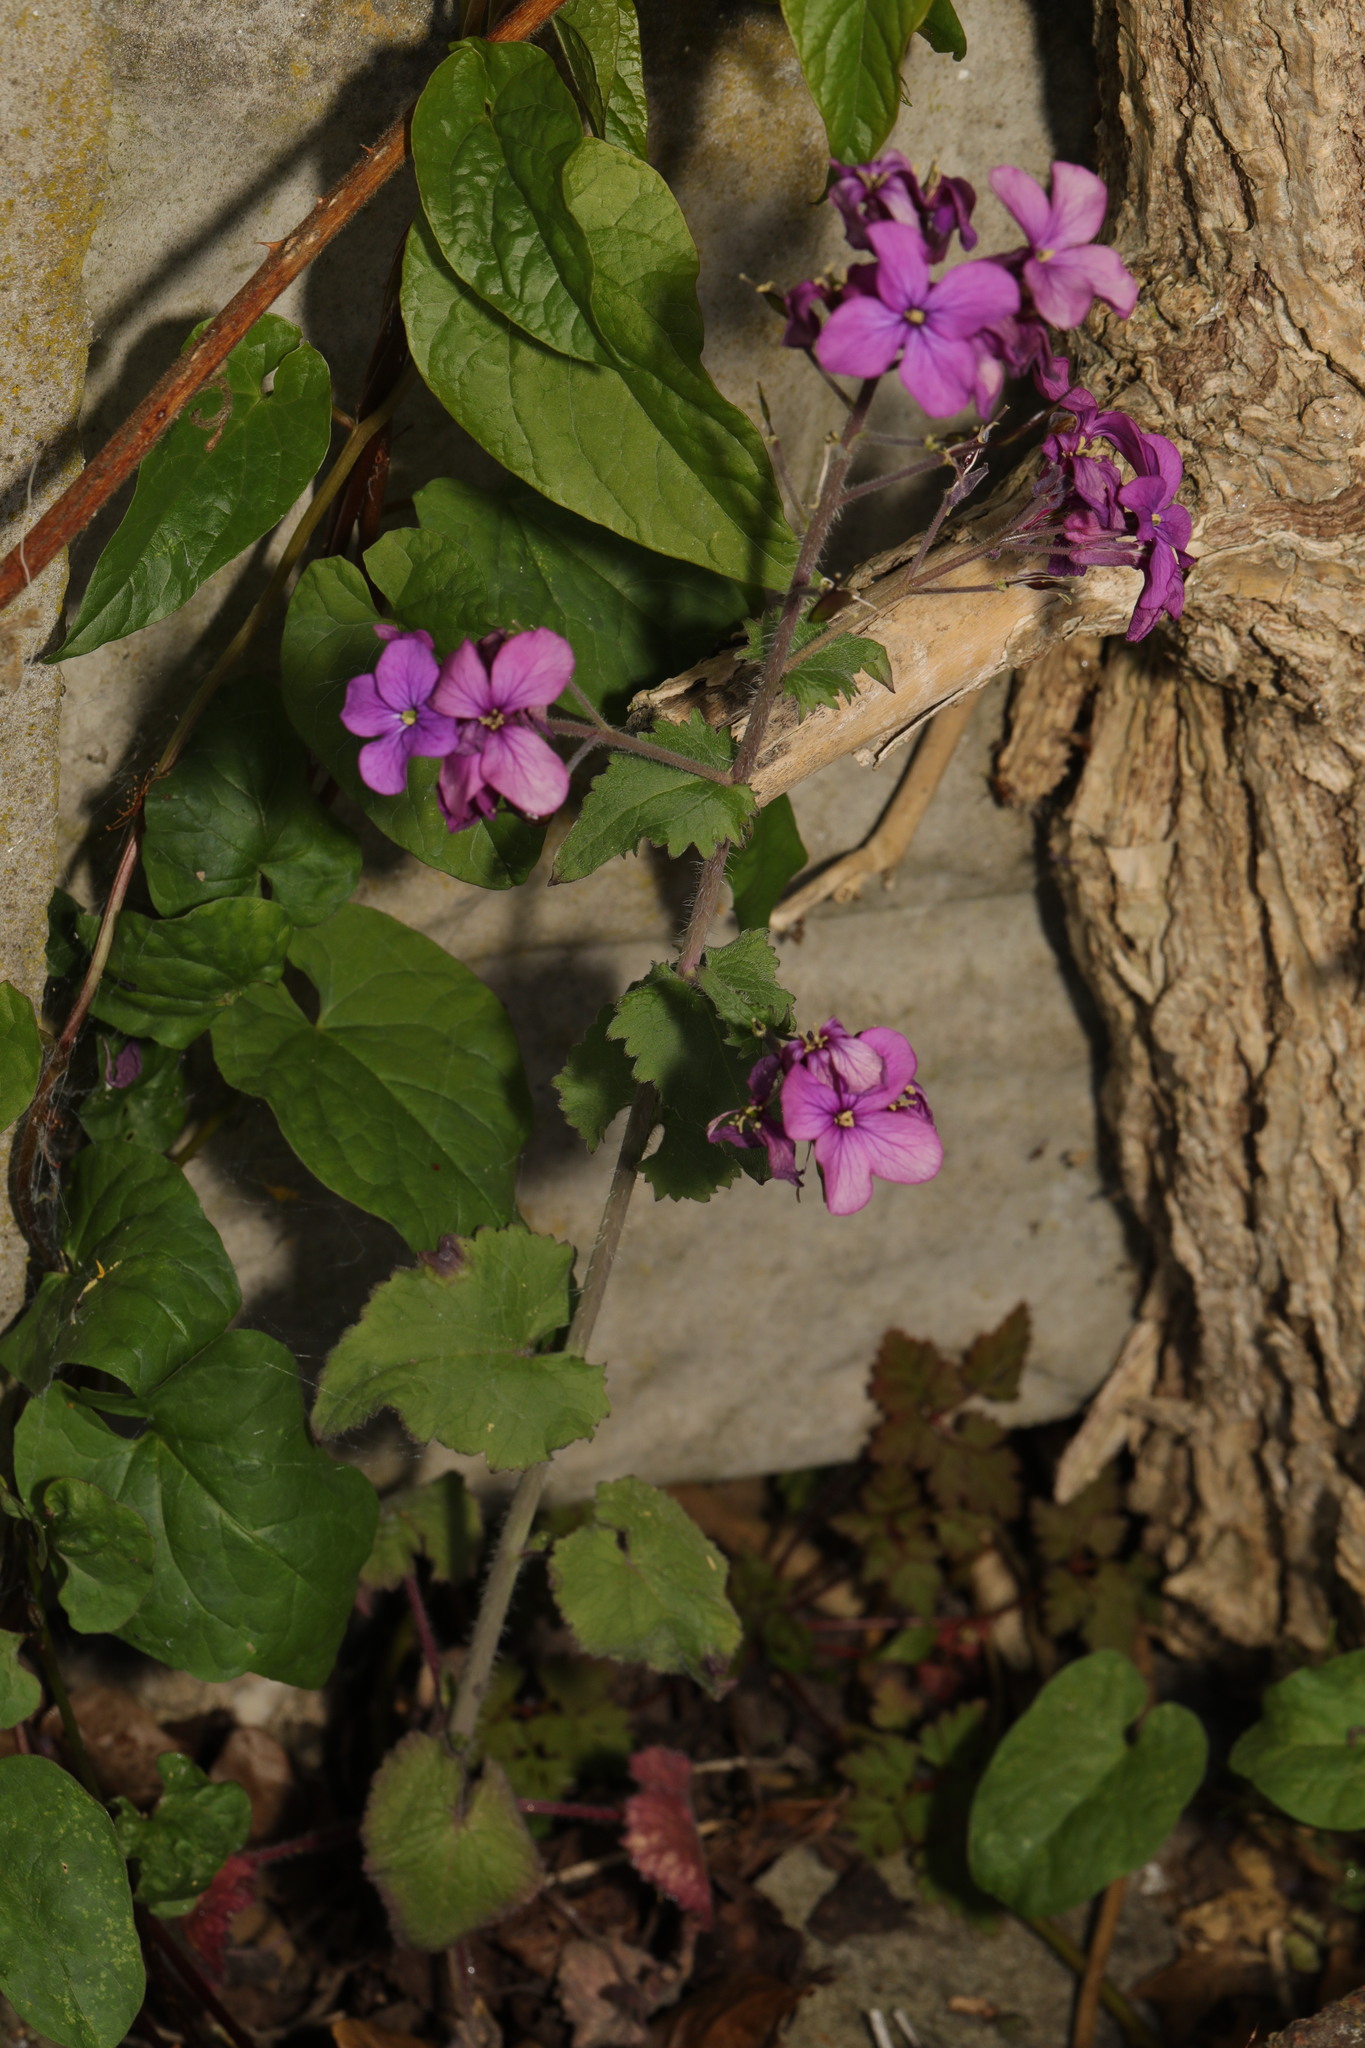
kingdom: Plantae
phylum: Tracheophyta
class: Magnoliopsida
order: Brassicales
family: Brassicaceae
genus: Lunaria
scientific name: Lunaria annua
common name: Honesty
